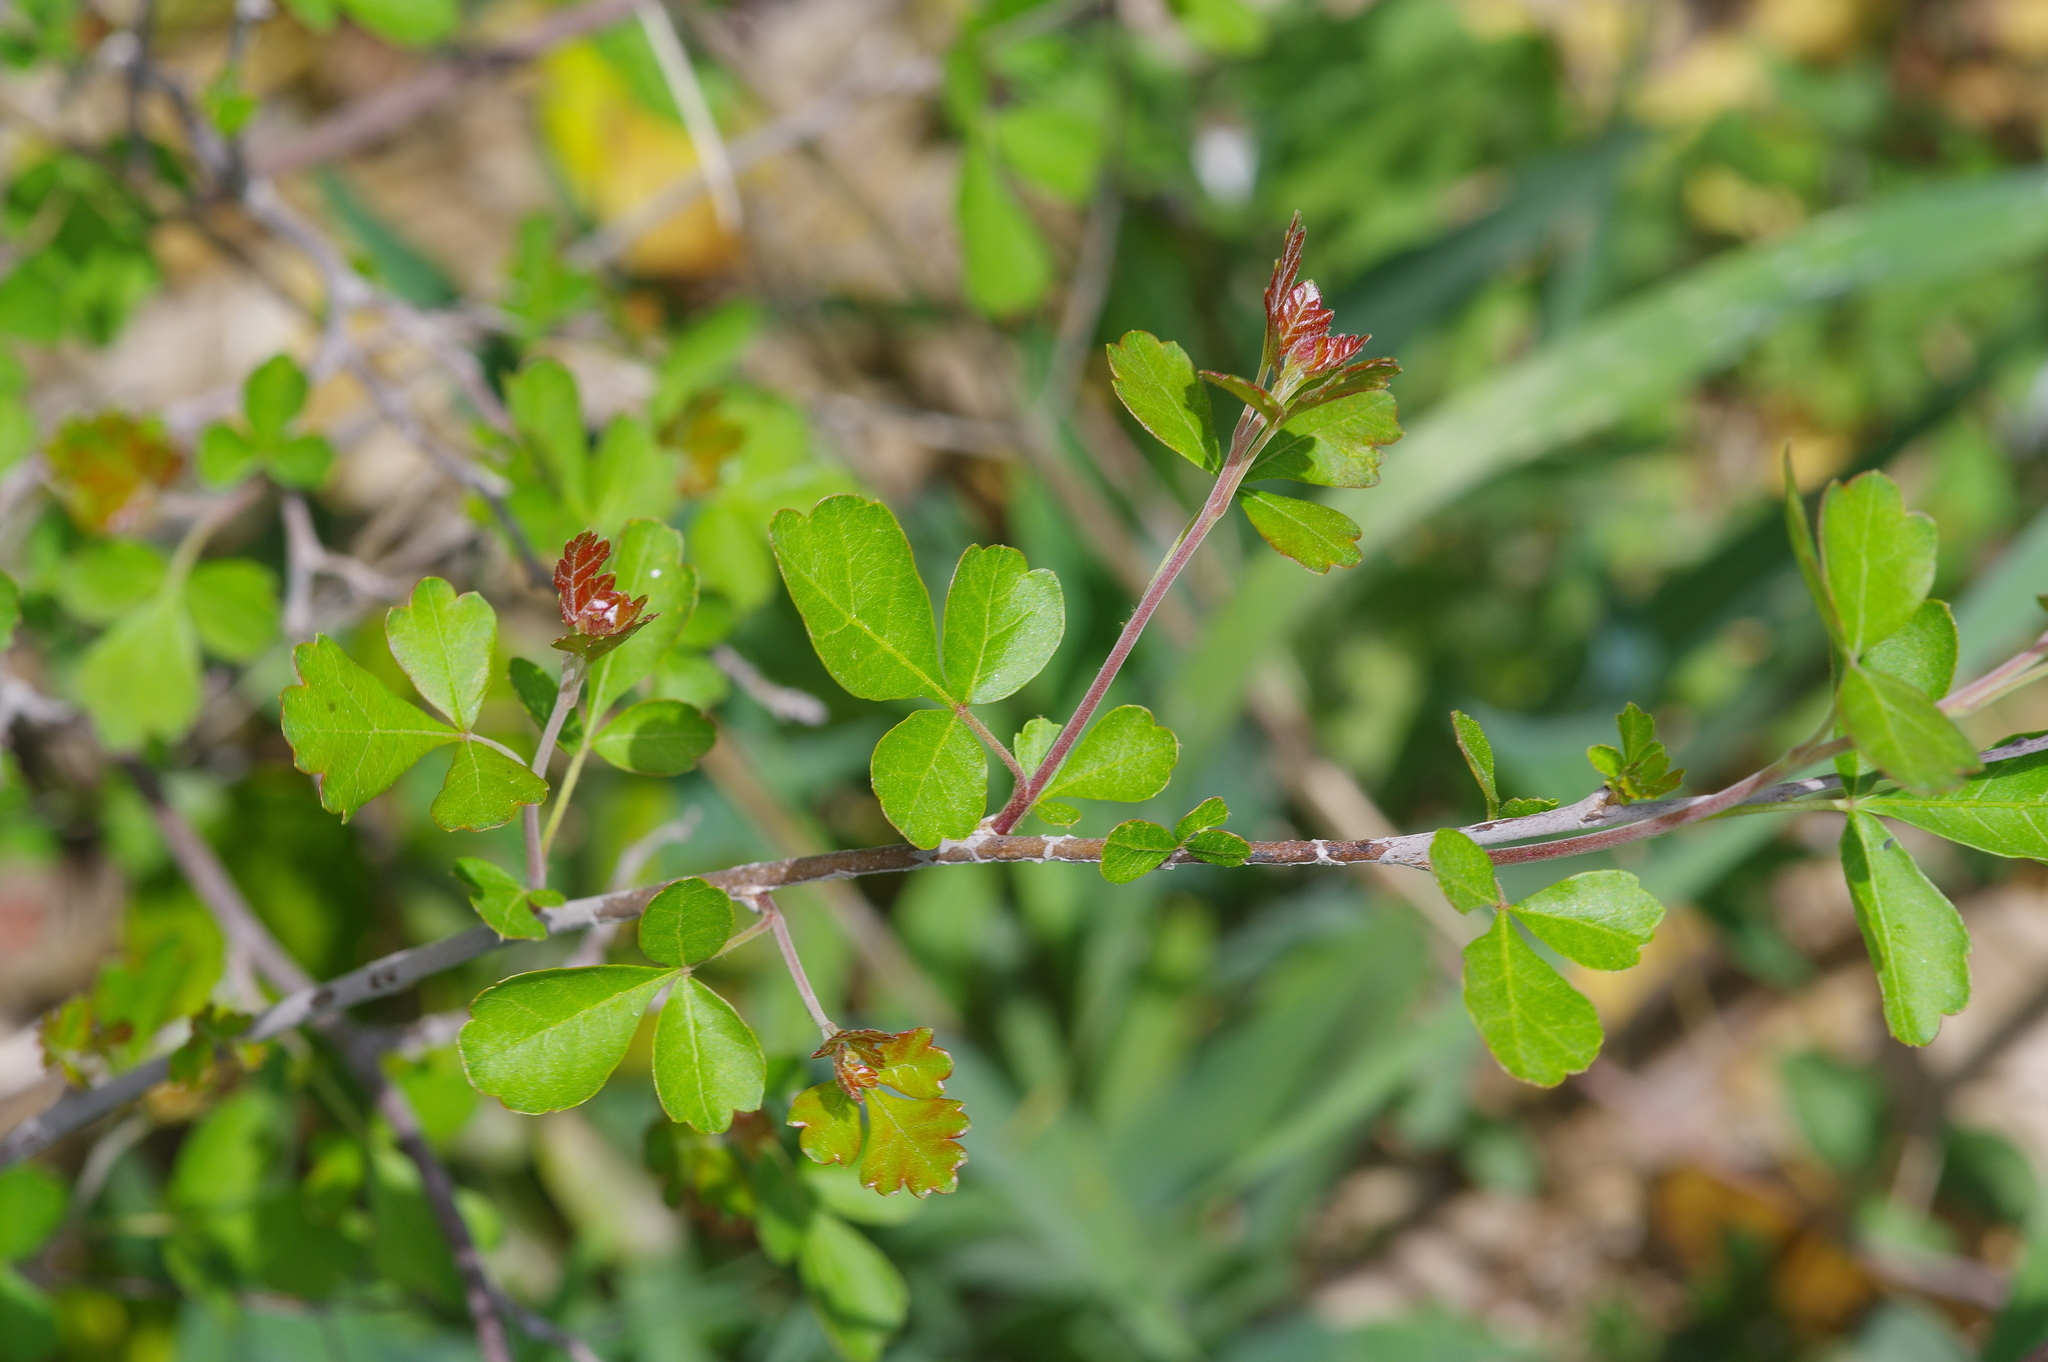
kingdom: Plantae
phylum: Tracheophyta
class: Magnoliopsida
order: Sapindales
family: Anacardiaceae
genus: Rhus
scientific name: Rhus trilobata
